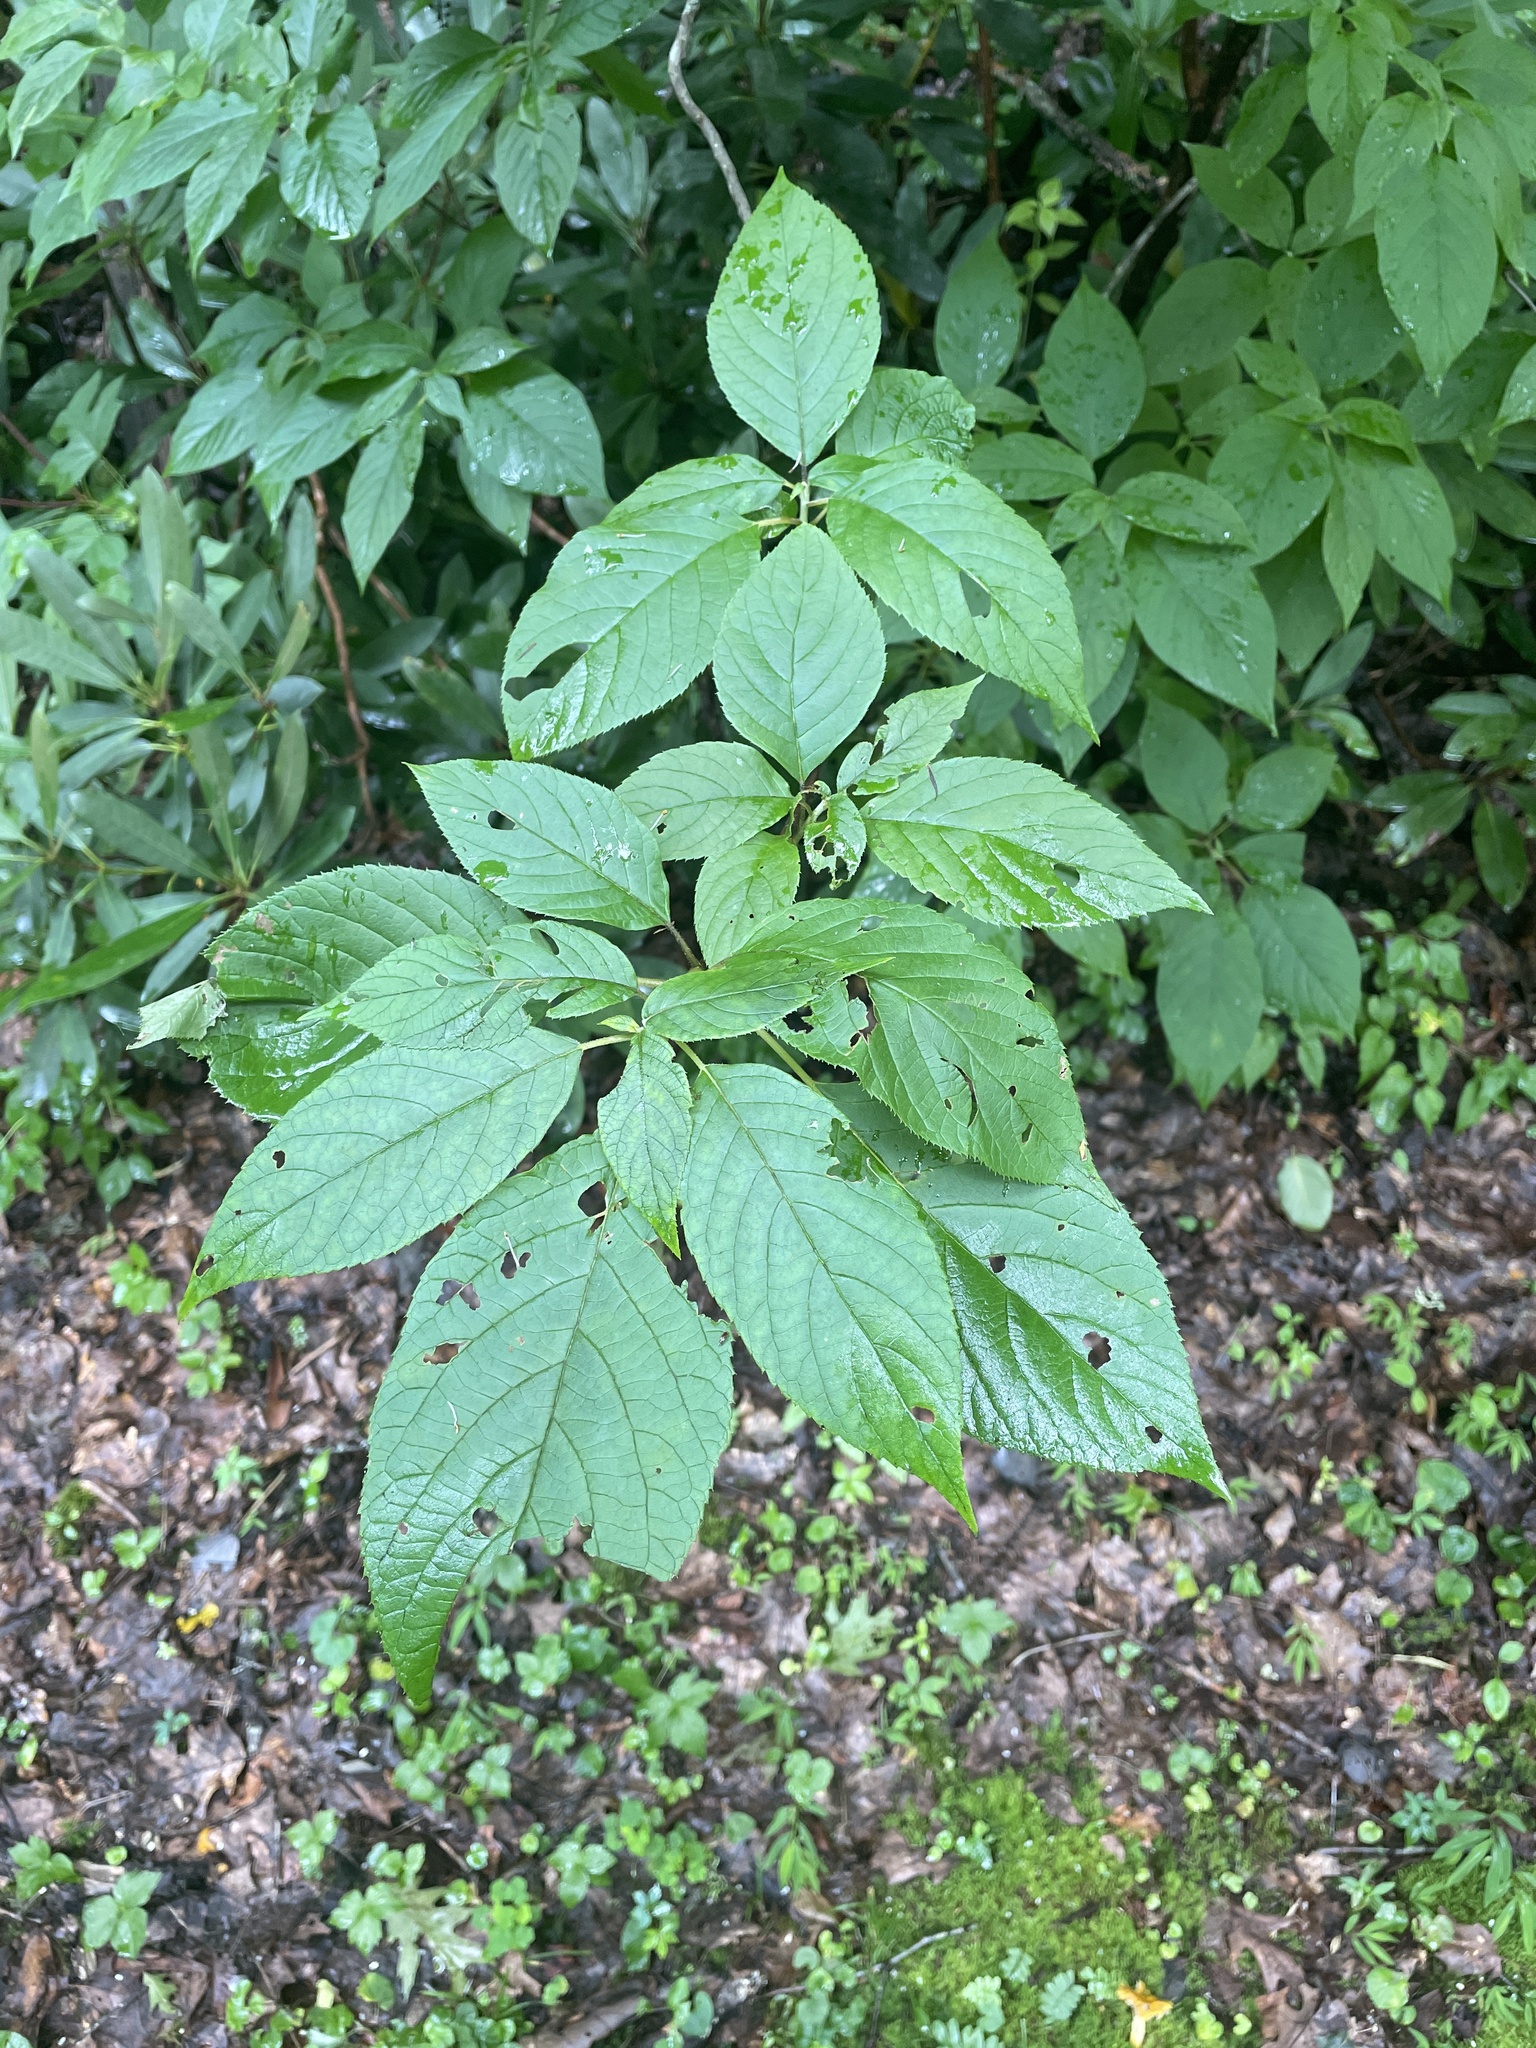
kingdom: Plantae
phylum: Tracheophyta
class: Magnoliopsida
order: Ericales
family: Clethraceae
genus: Clethra
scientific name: Clethra acuminata
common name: Mountain sweet pepperbush
